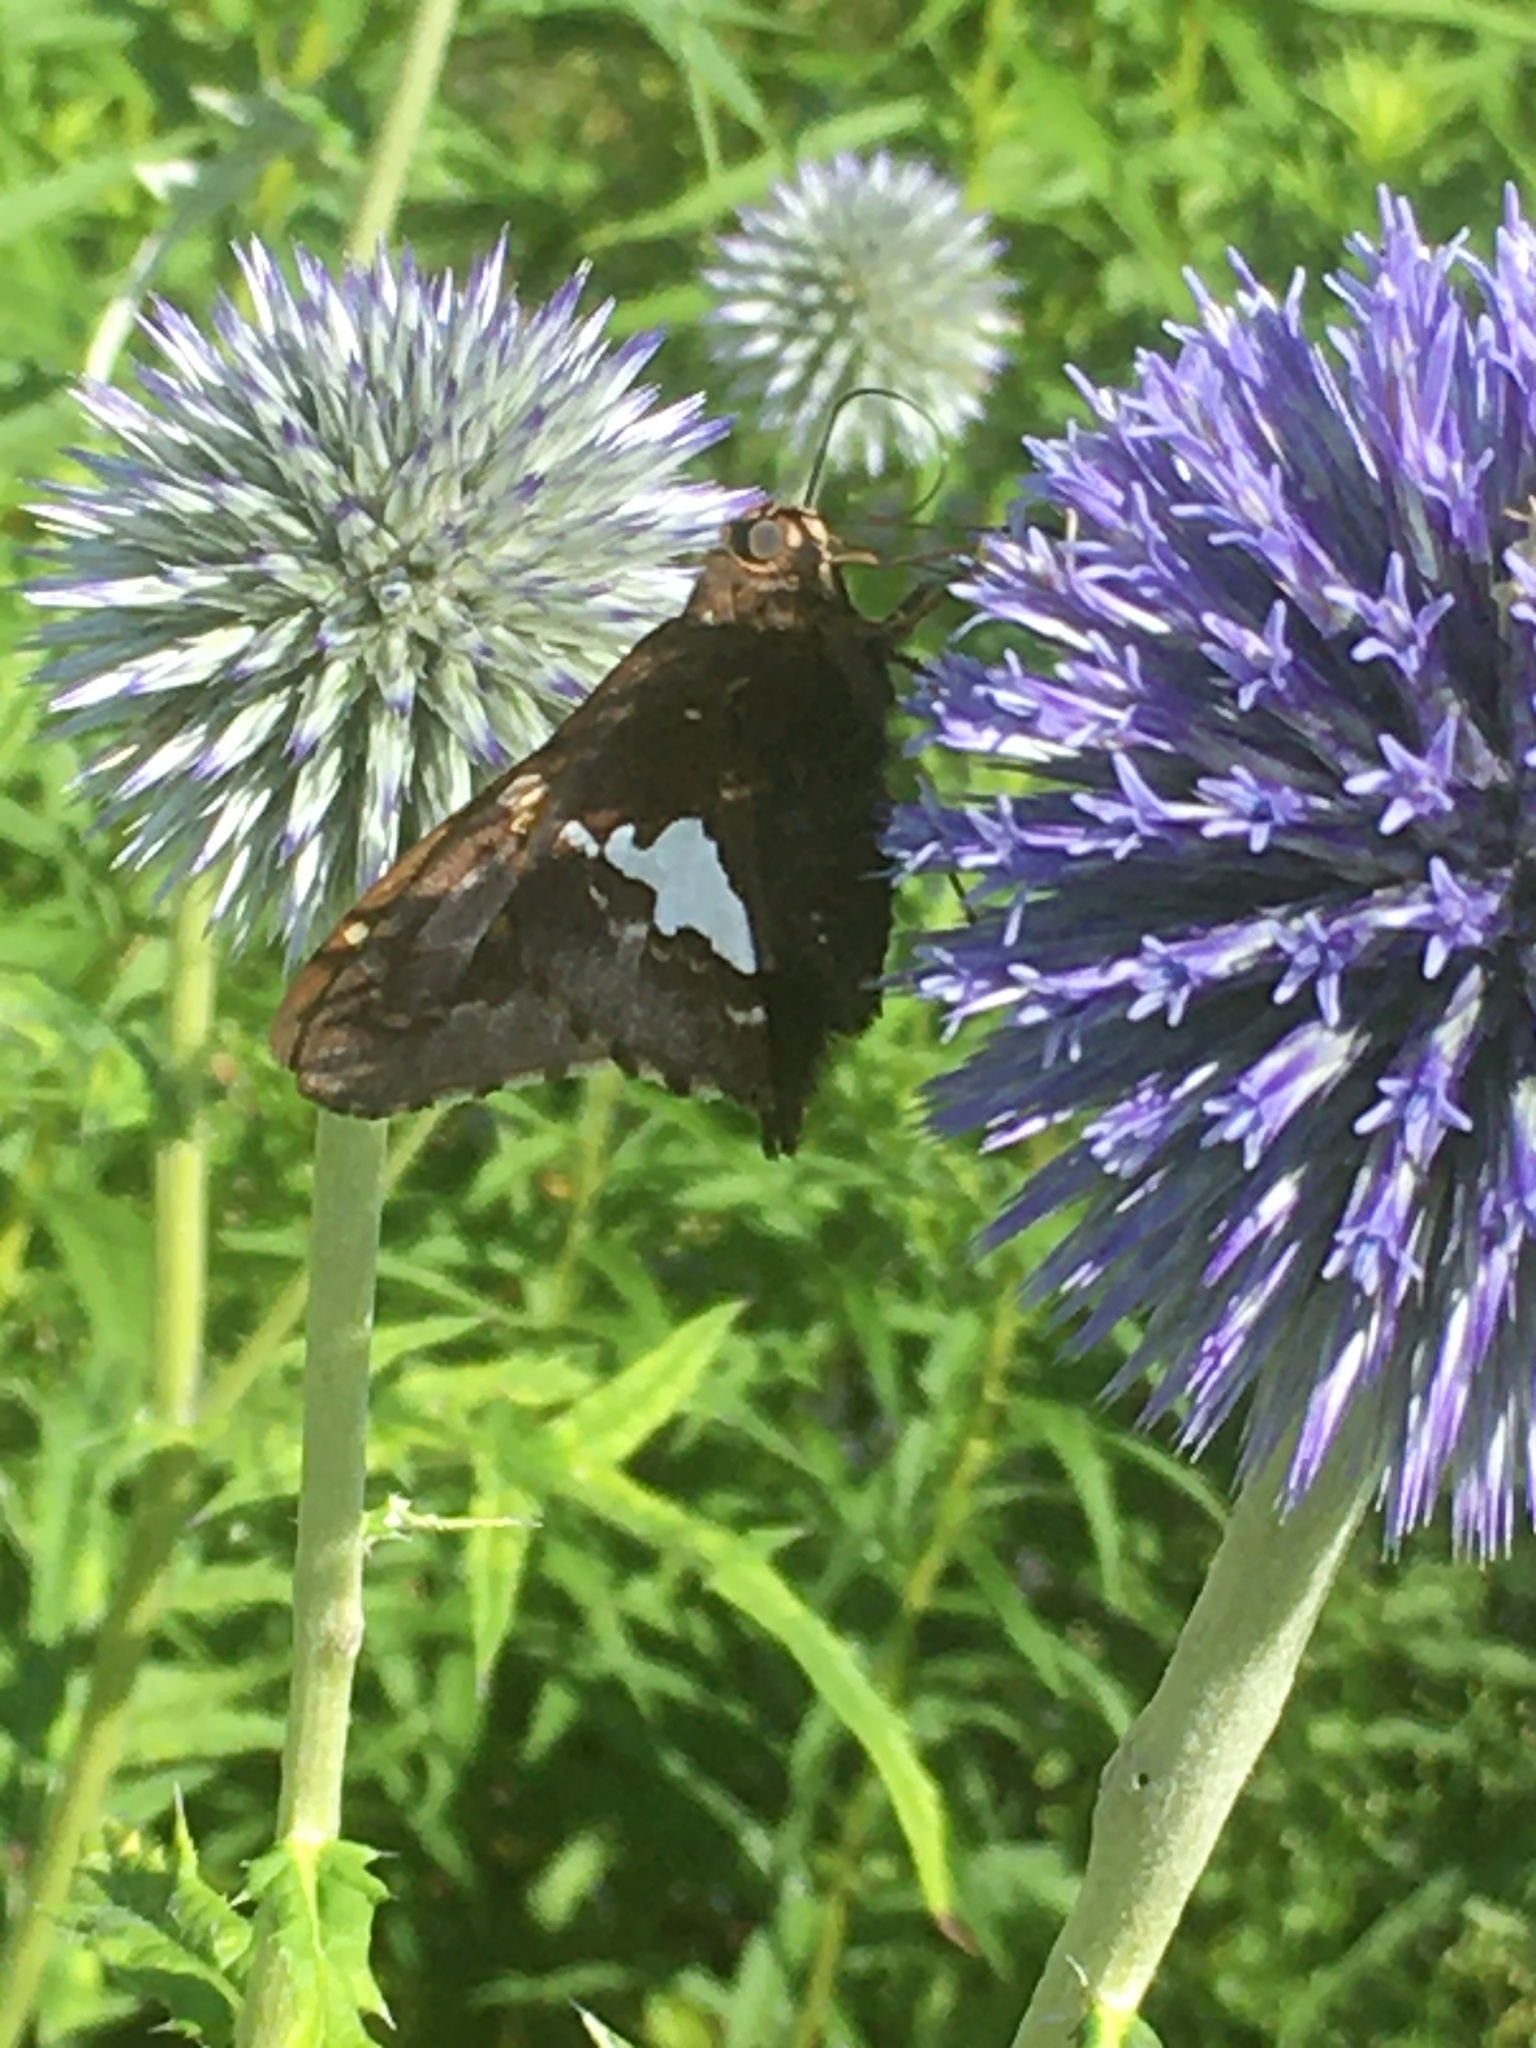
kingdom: Animalia
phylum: Arthropoda
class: Insecta
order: Lepidoptera
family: Hesperiidae
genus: Epargyreus
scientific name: Epargyreus clarus
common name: Silver-spotted skipper
